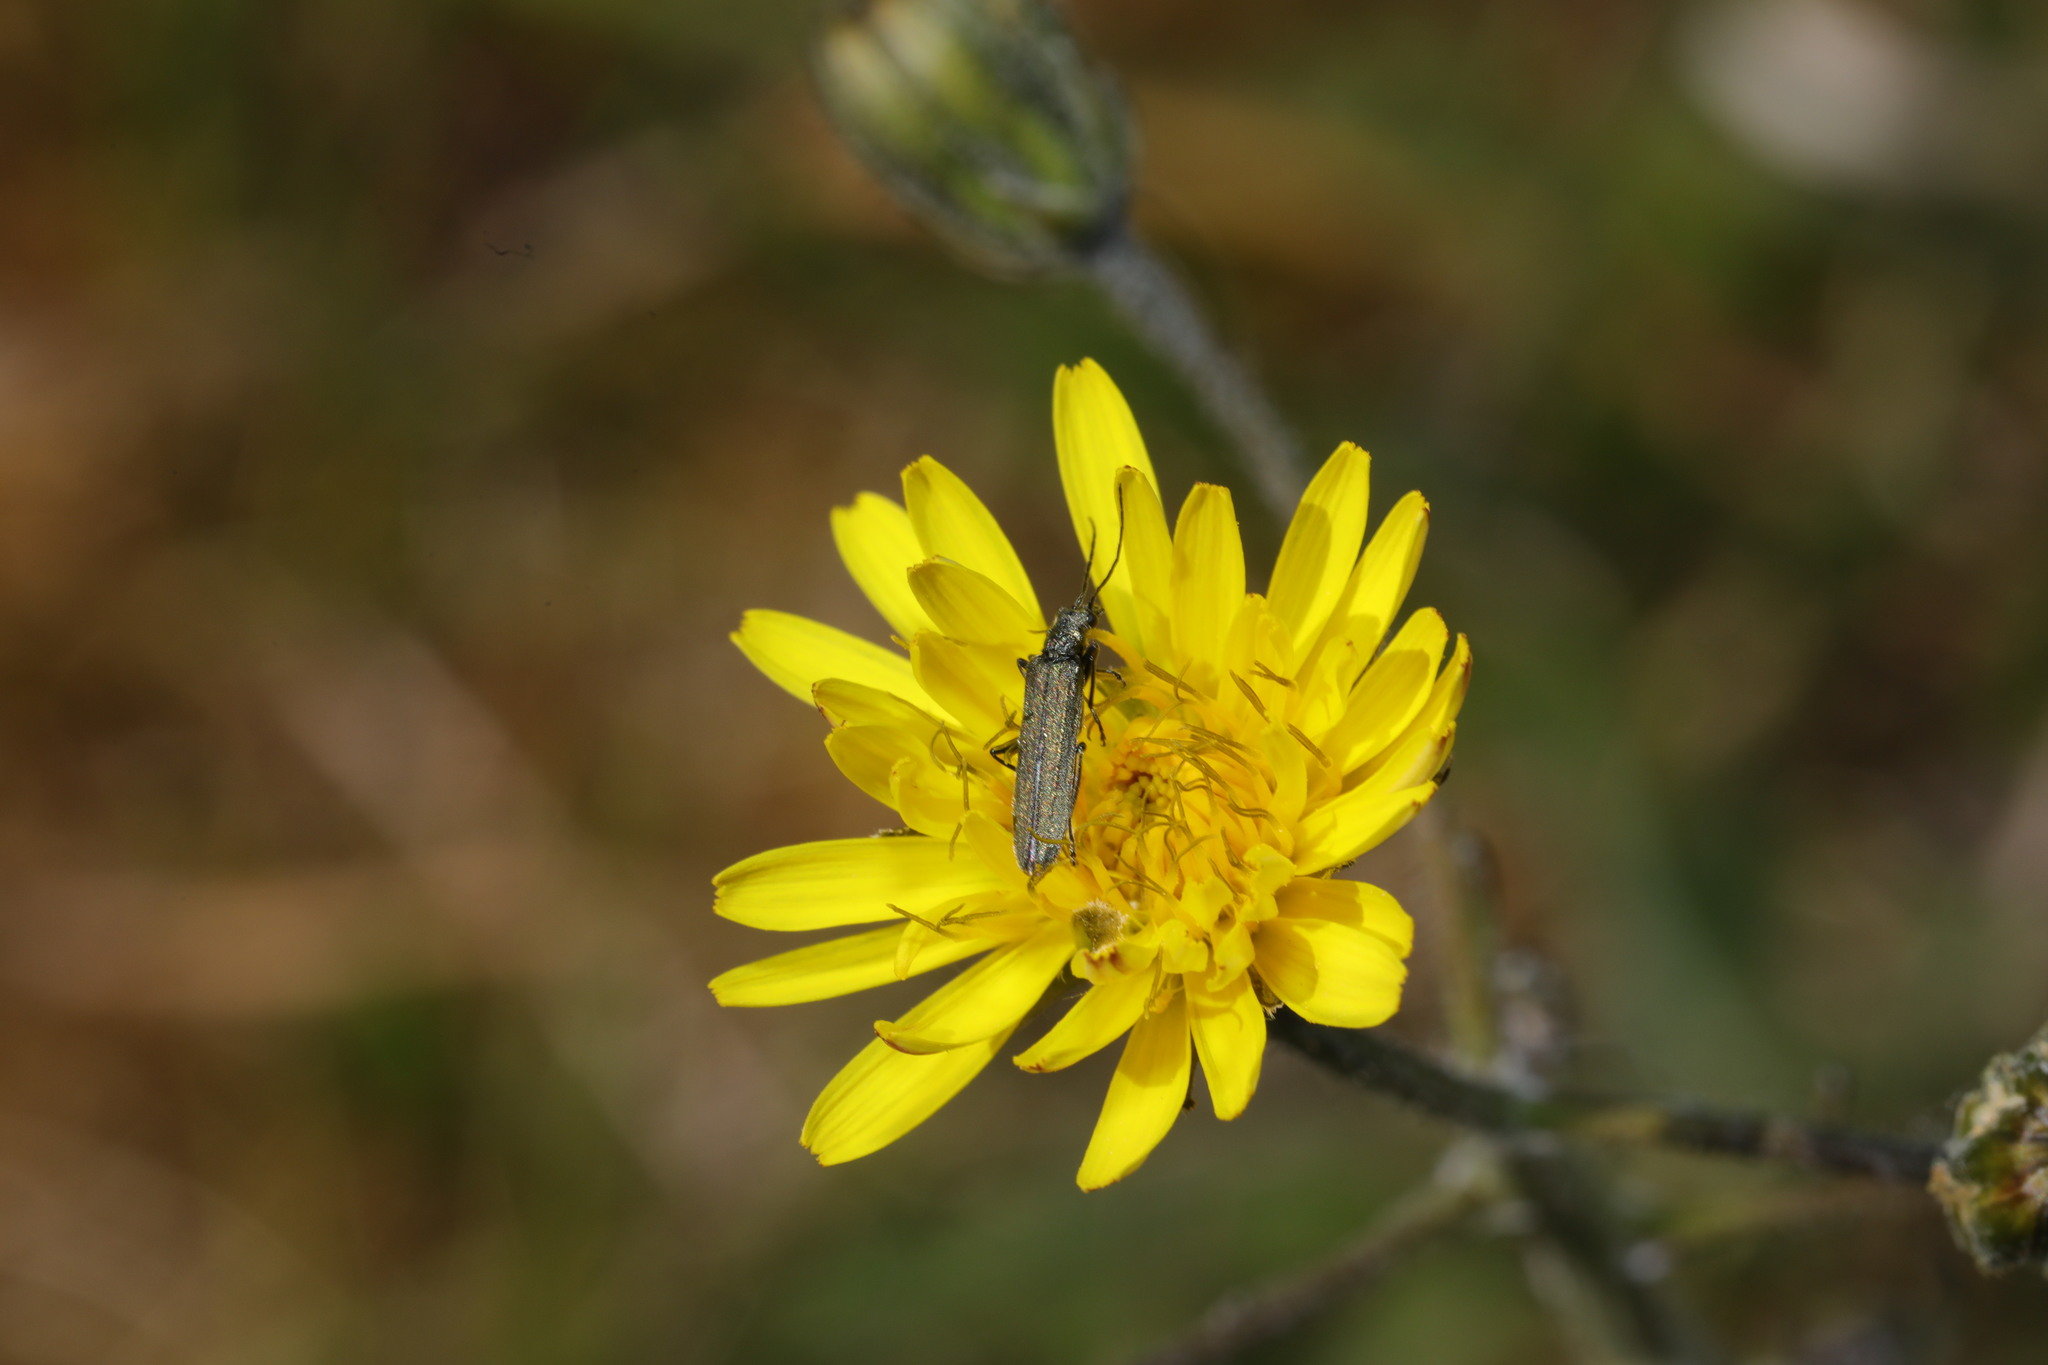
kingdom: Animalia
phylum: Arthropoda
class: Insecta
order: Coleoptera
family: Oedemeridae
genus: Oedemera
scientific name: Oedemera lurida
